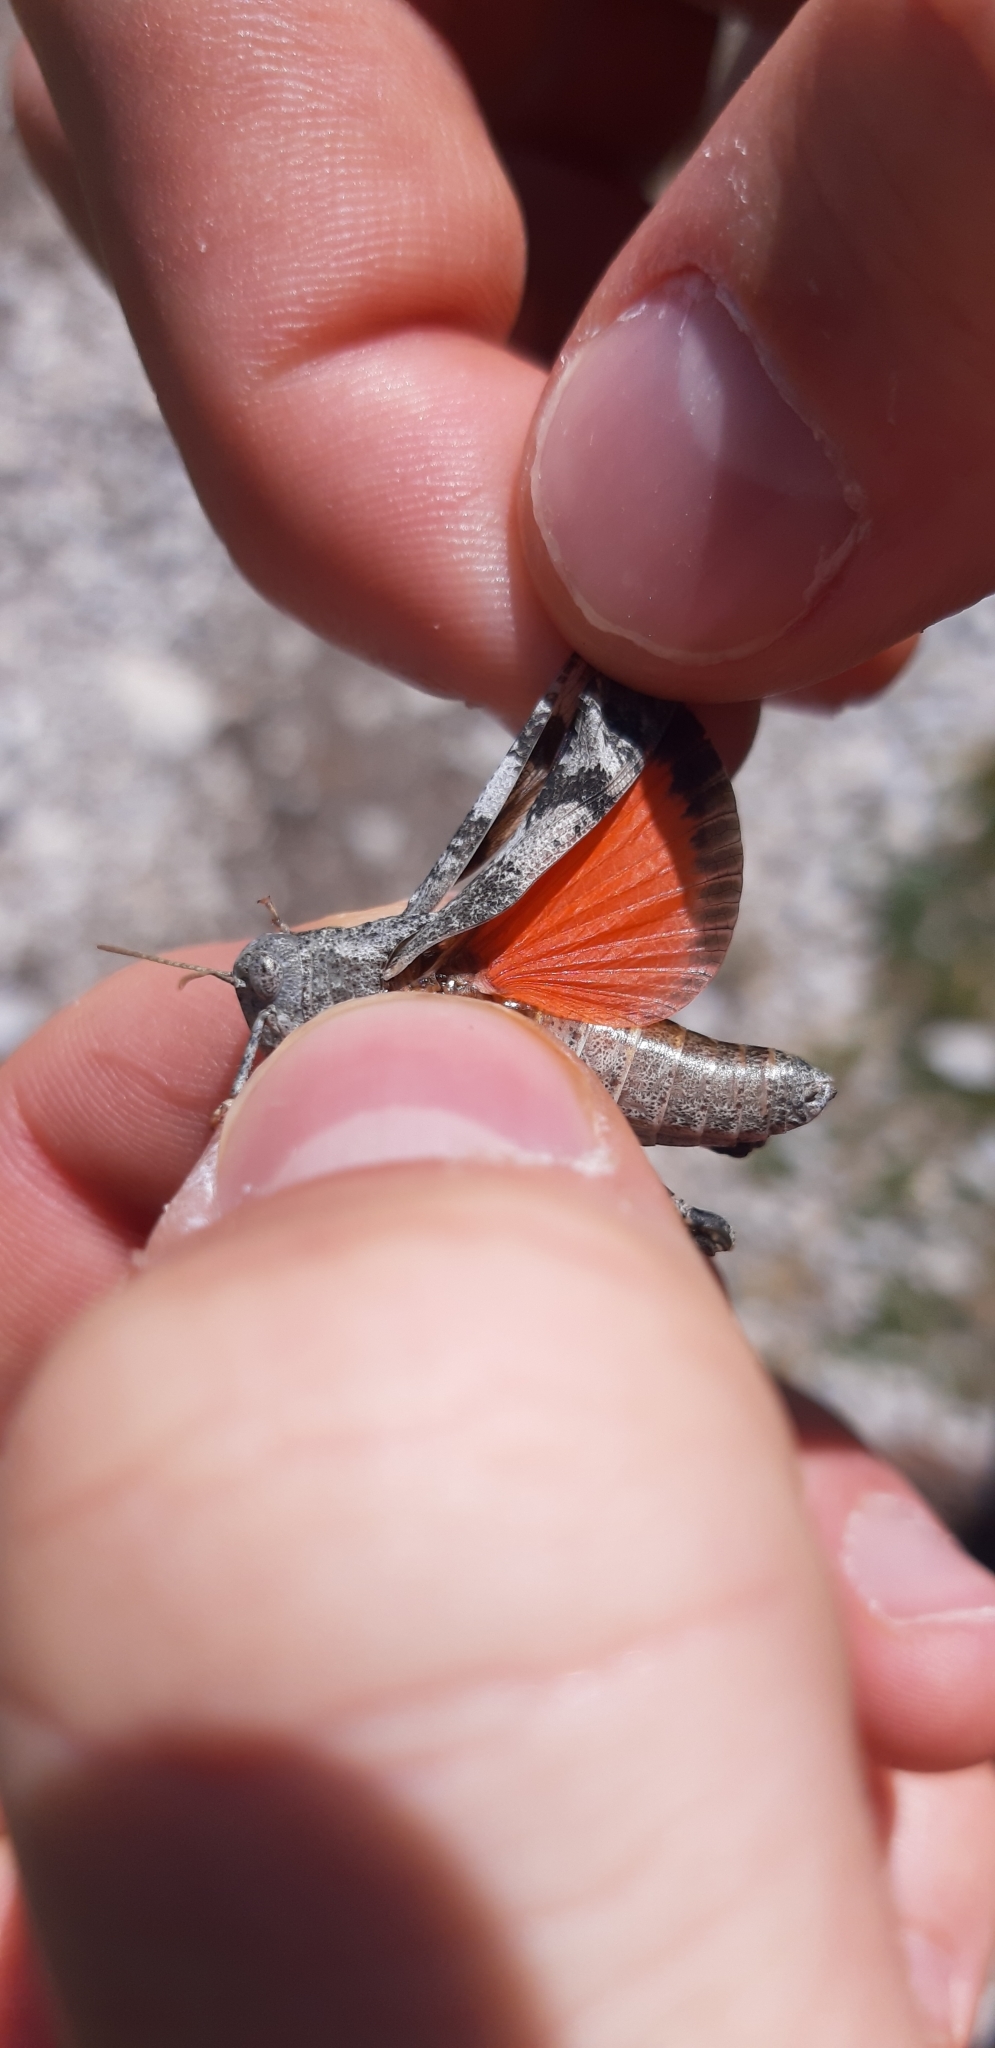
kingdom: Animalia
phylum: Arthropoda
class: Insecta
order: Orthoptera
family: Acrididae
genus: Oedipoda
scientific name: Oedipoda germanica
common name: Red band-winged grasshopper
